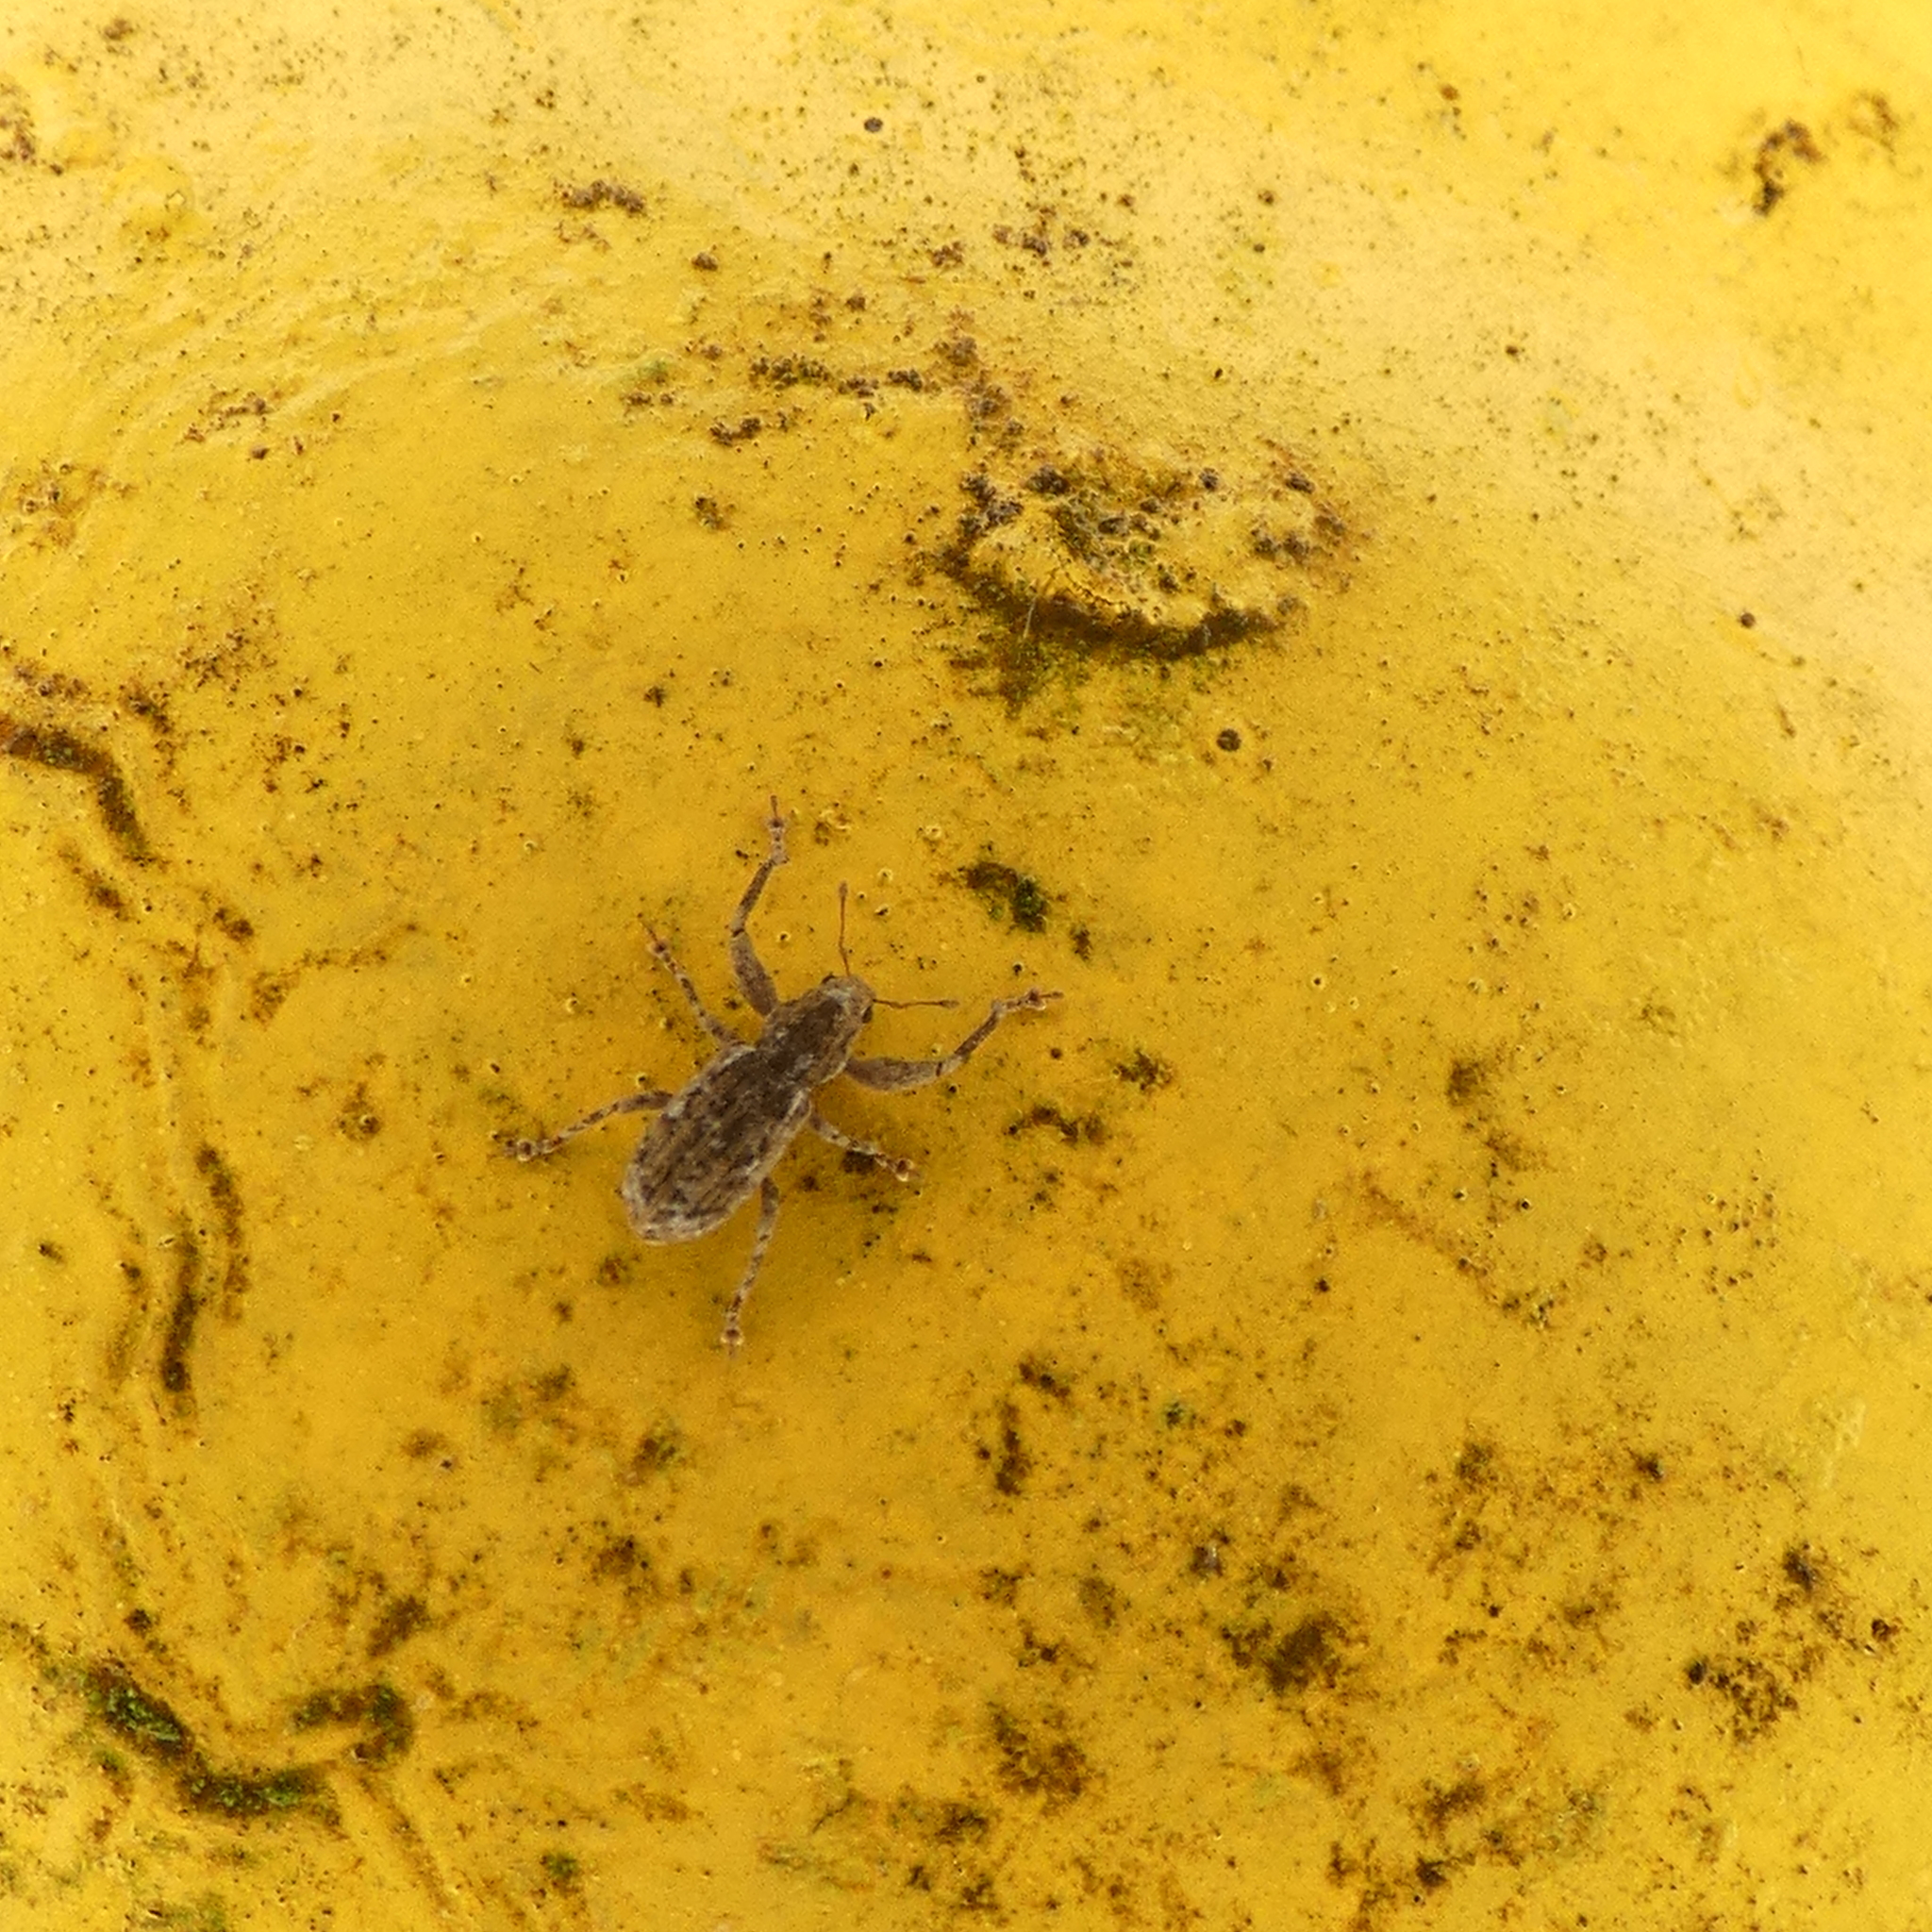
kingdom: Animalia
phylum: Arthropoda
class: Insecta
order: Coleoptera
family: Curculionidae
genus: Pandeleteius
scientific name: Pandeleteius hilaris
